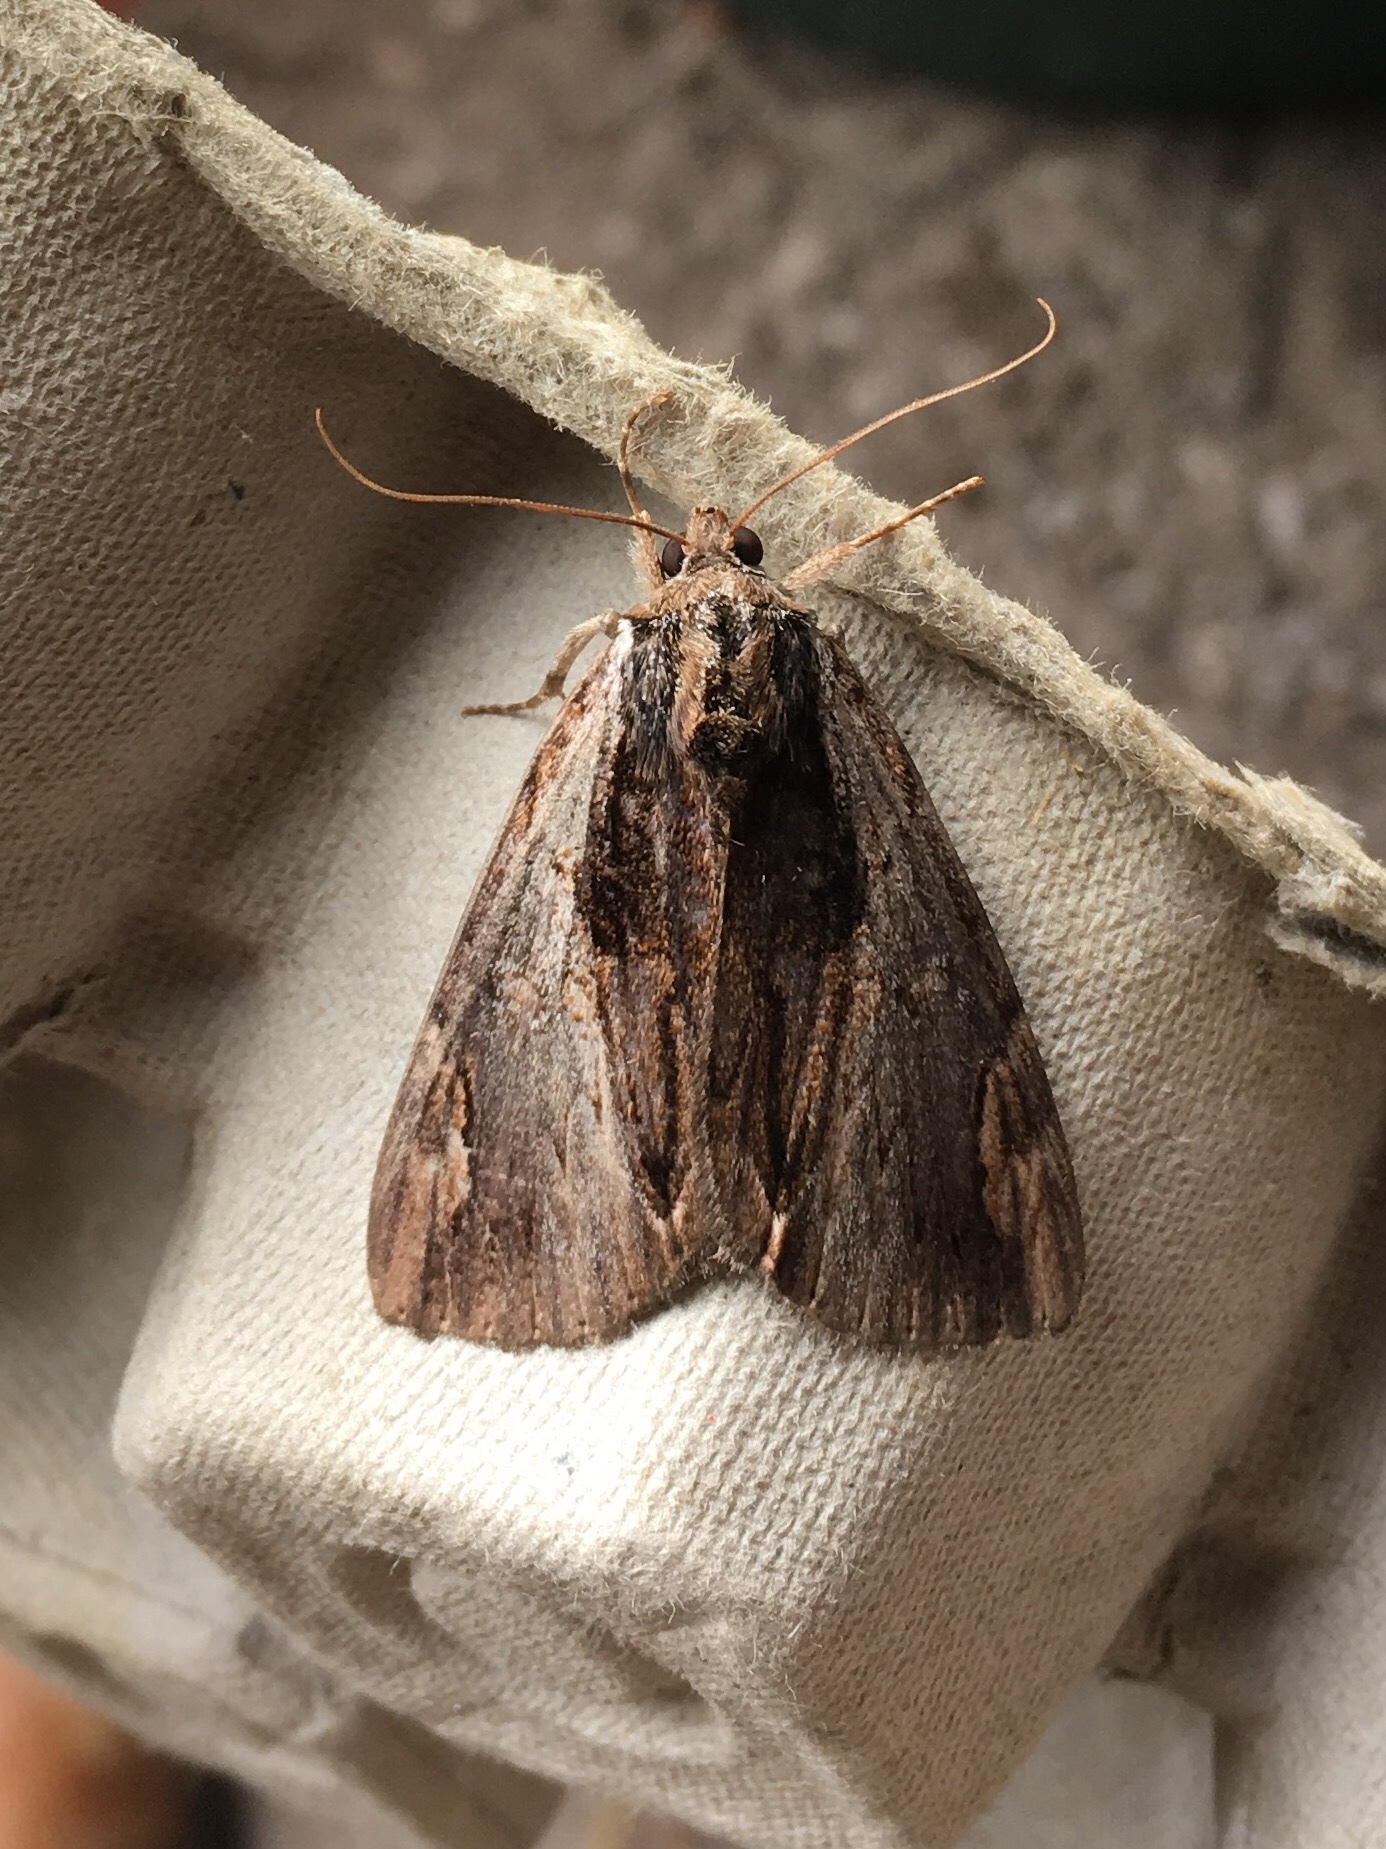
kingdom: Animalia
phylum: Arthropoda
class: Insecta
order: Lepidoptera
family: Erebidae
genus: Catocala
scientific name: Catocala ultronia
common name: Ultronia underwing
